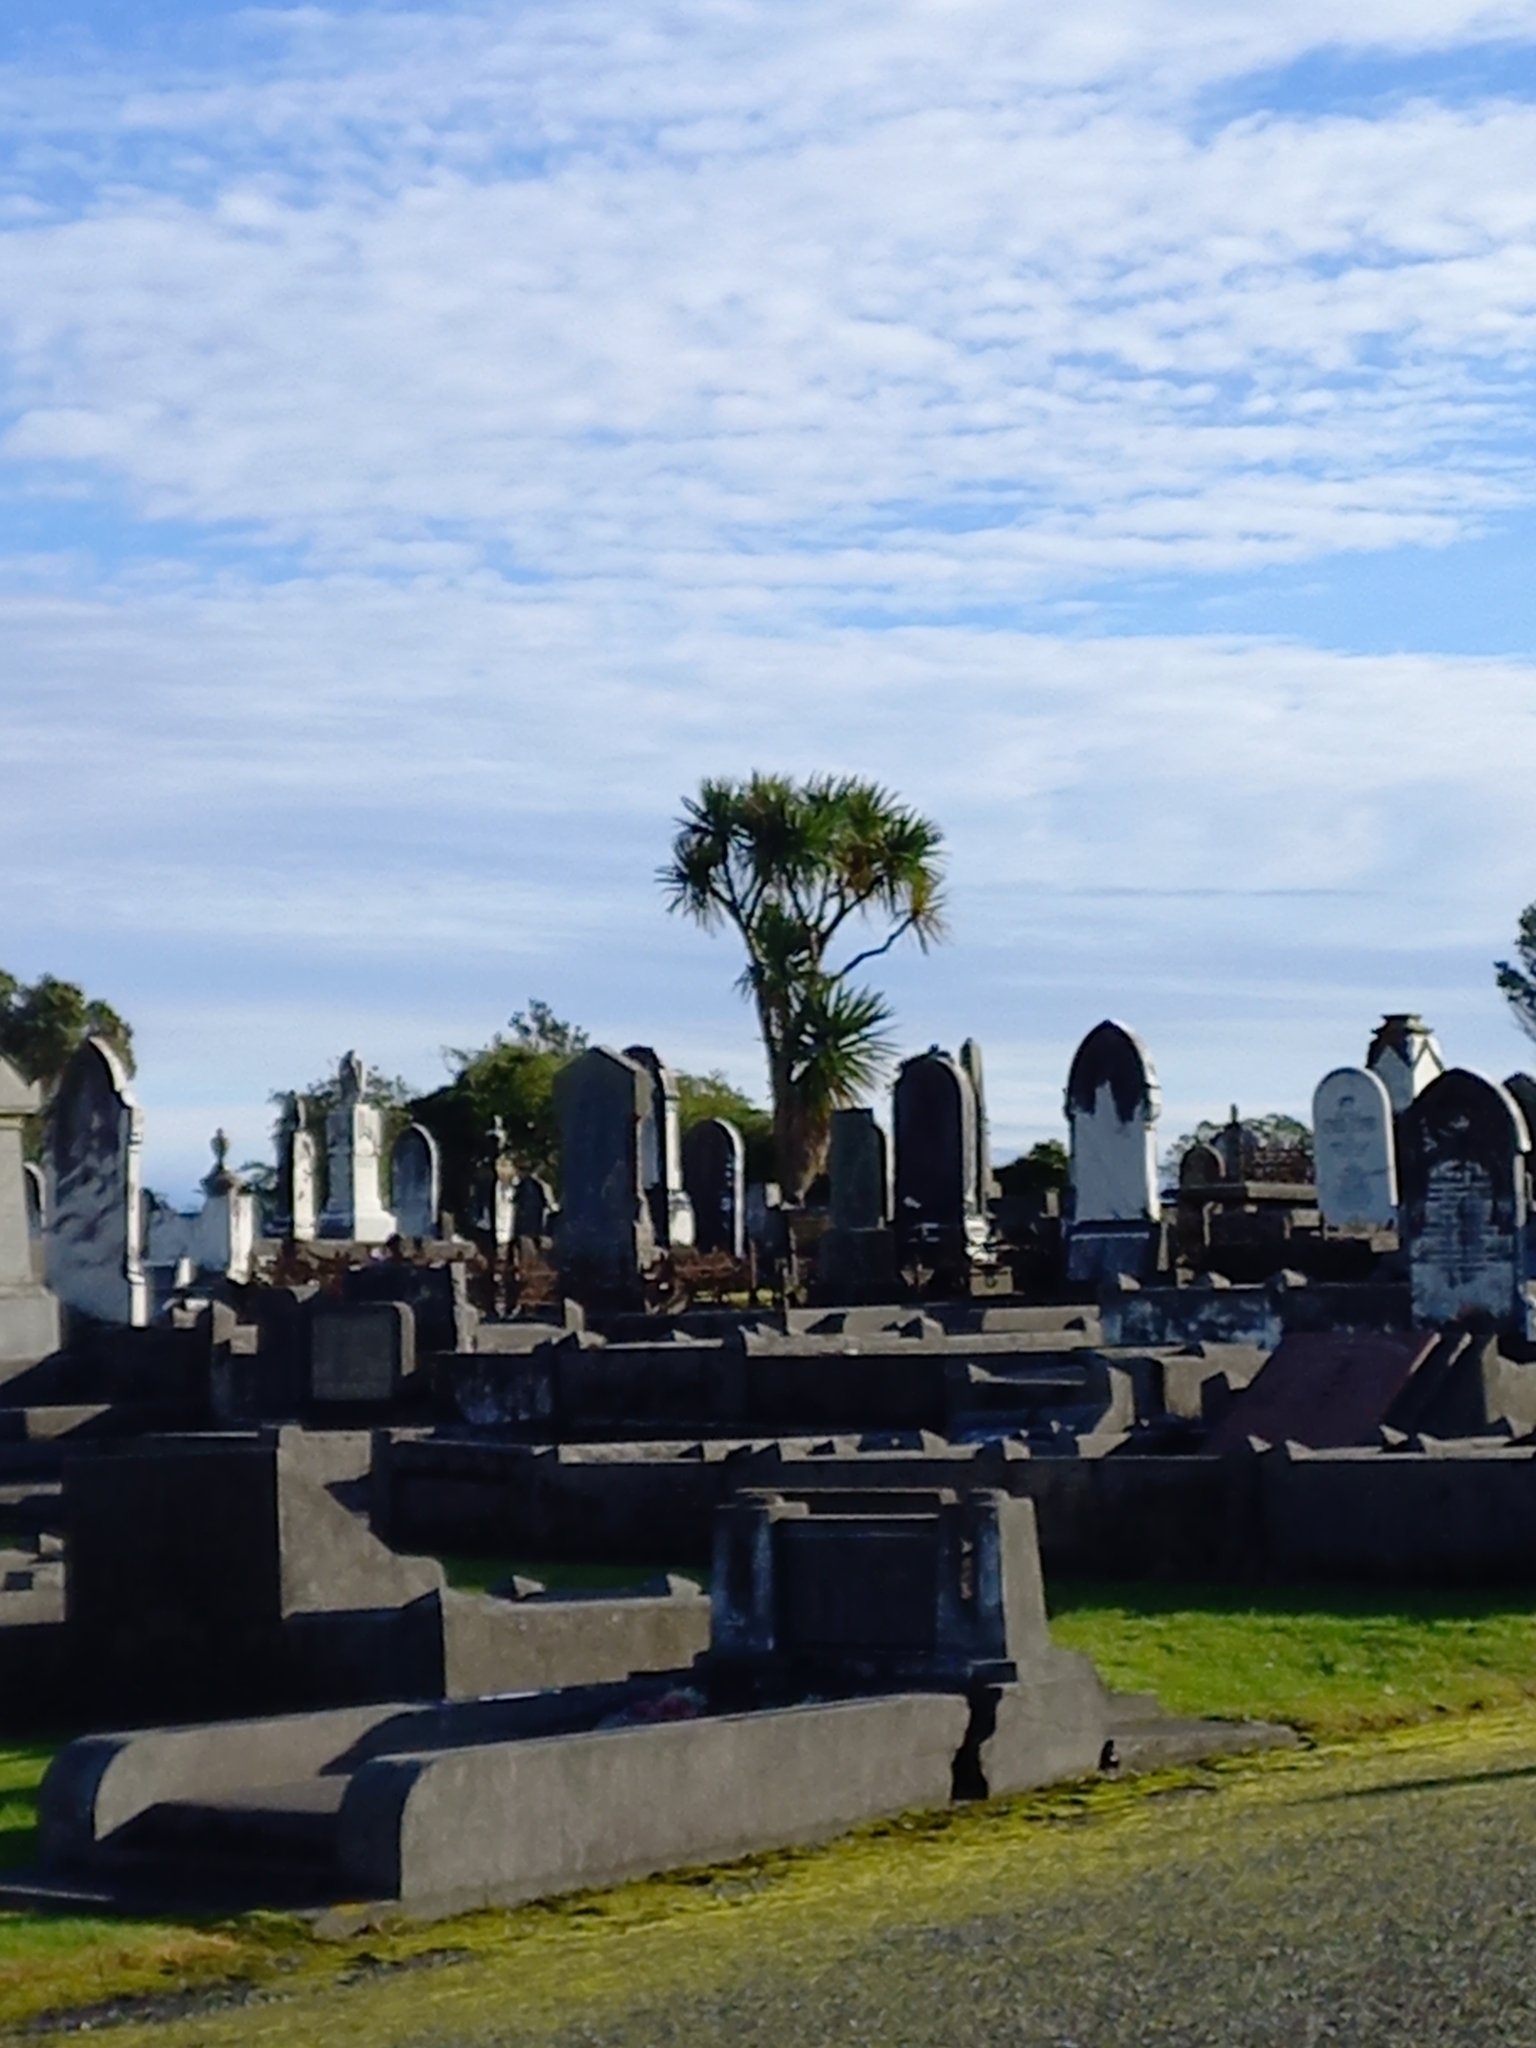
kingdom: Plantae
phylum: Tracheophyta
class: Liliopsida
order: Asparagales
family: Asparagaceae
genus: Cordyline
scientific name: Cordyline australis
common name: Cabbage-palm
